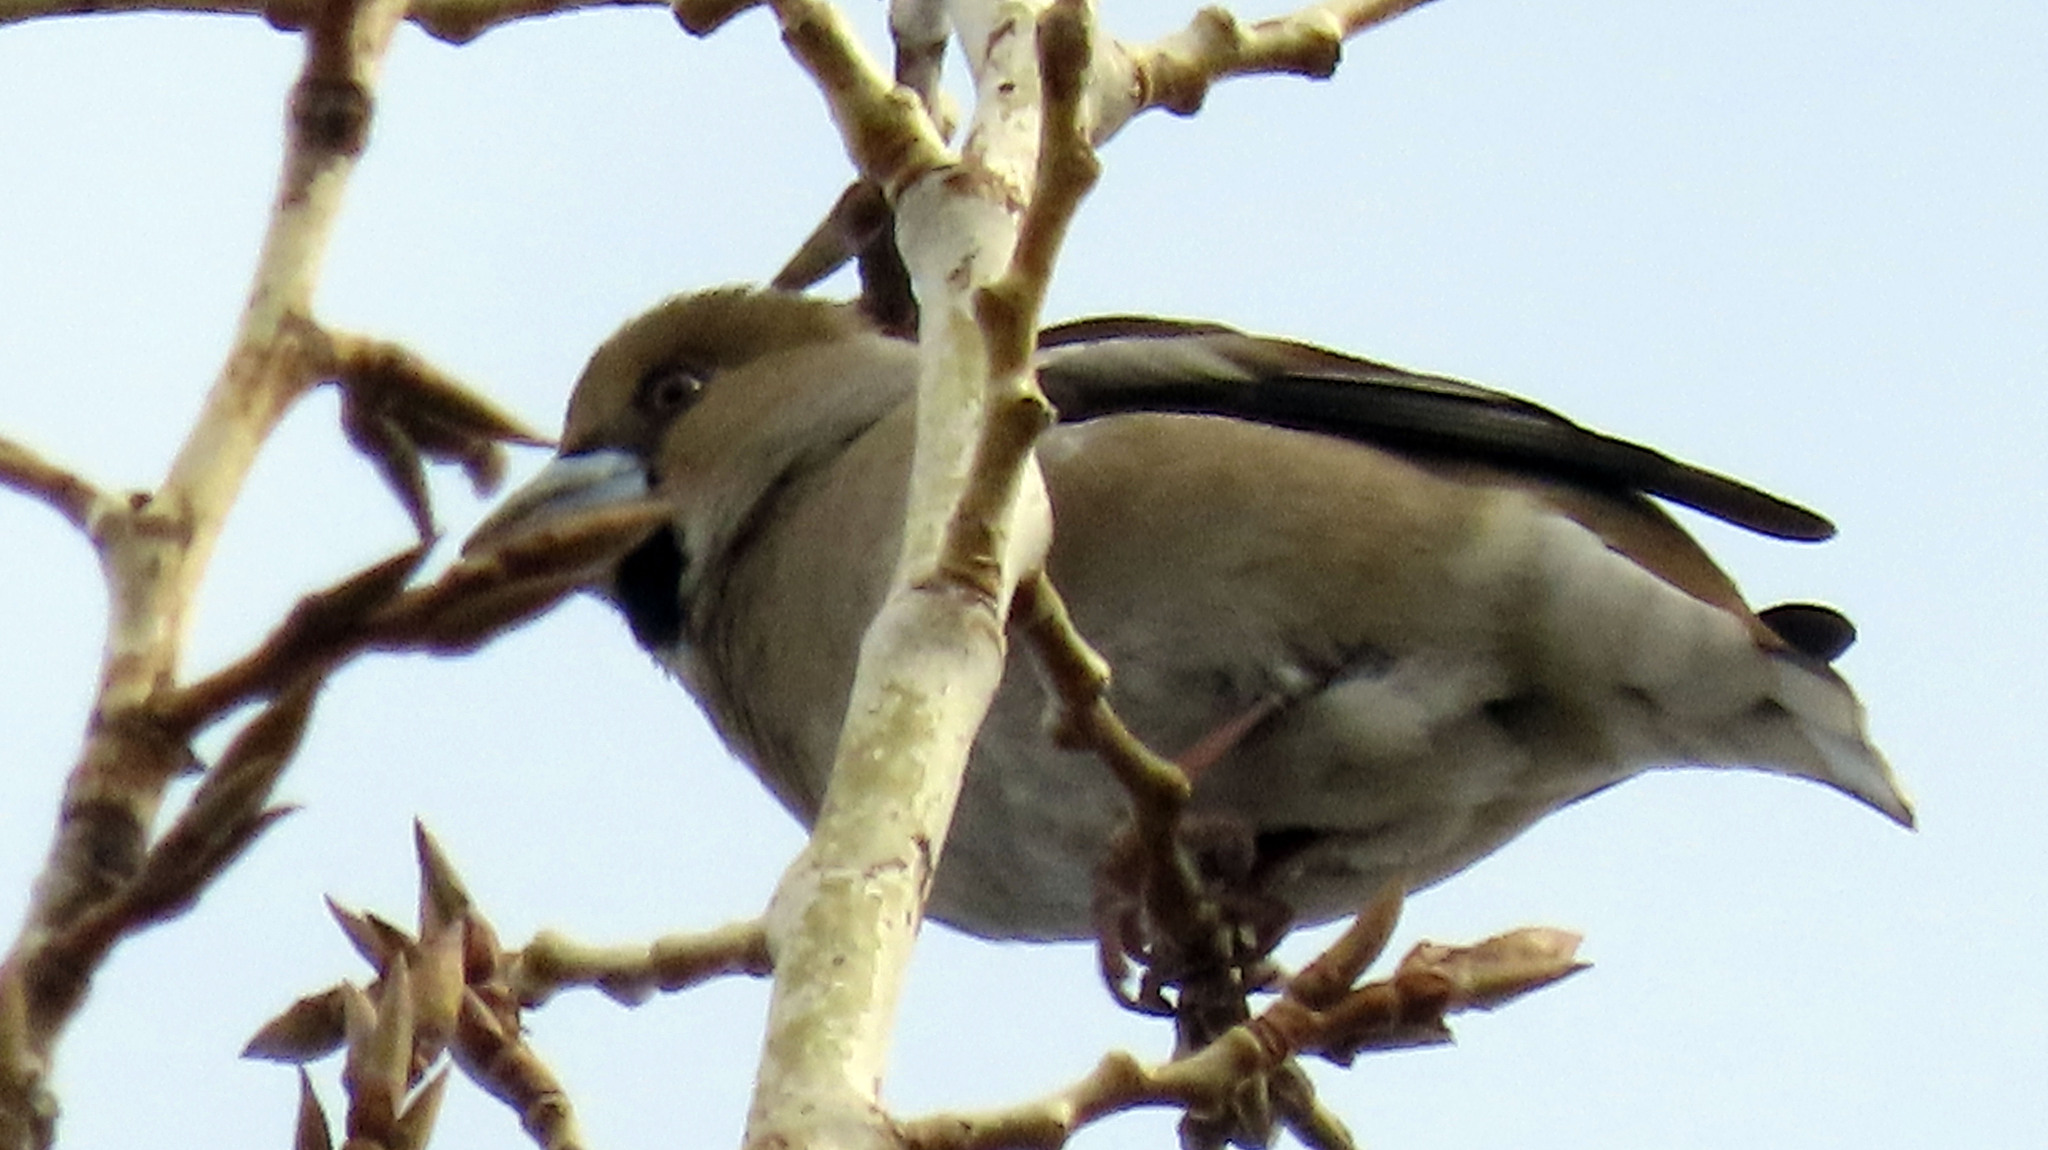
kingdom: Animalia
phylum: Chordata
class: Aves
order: Passeriformes
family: Fringillidae
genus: Coccothraustes
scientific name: Coccothraustes coccothraustes
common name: Hawfinch
